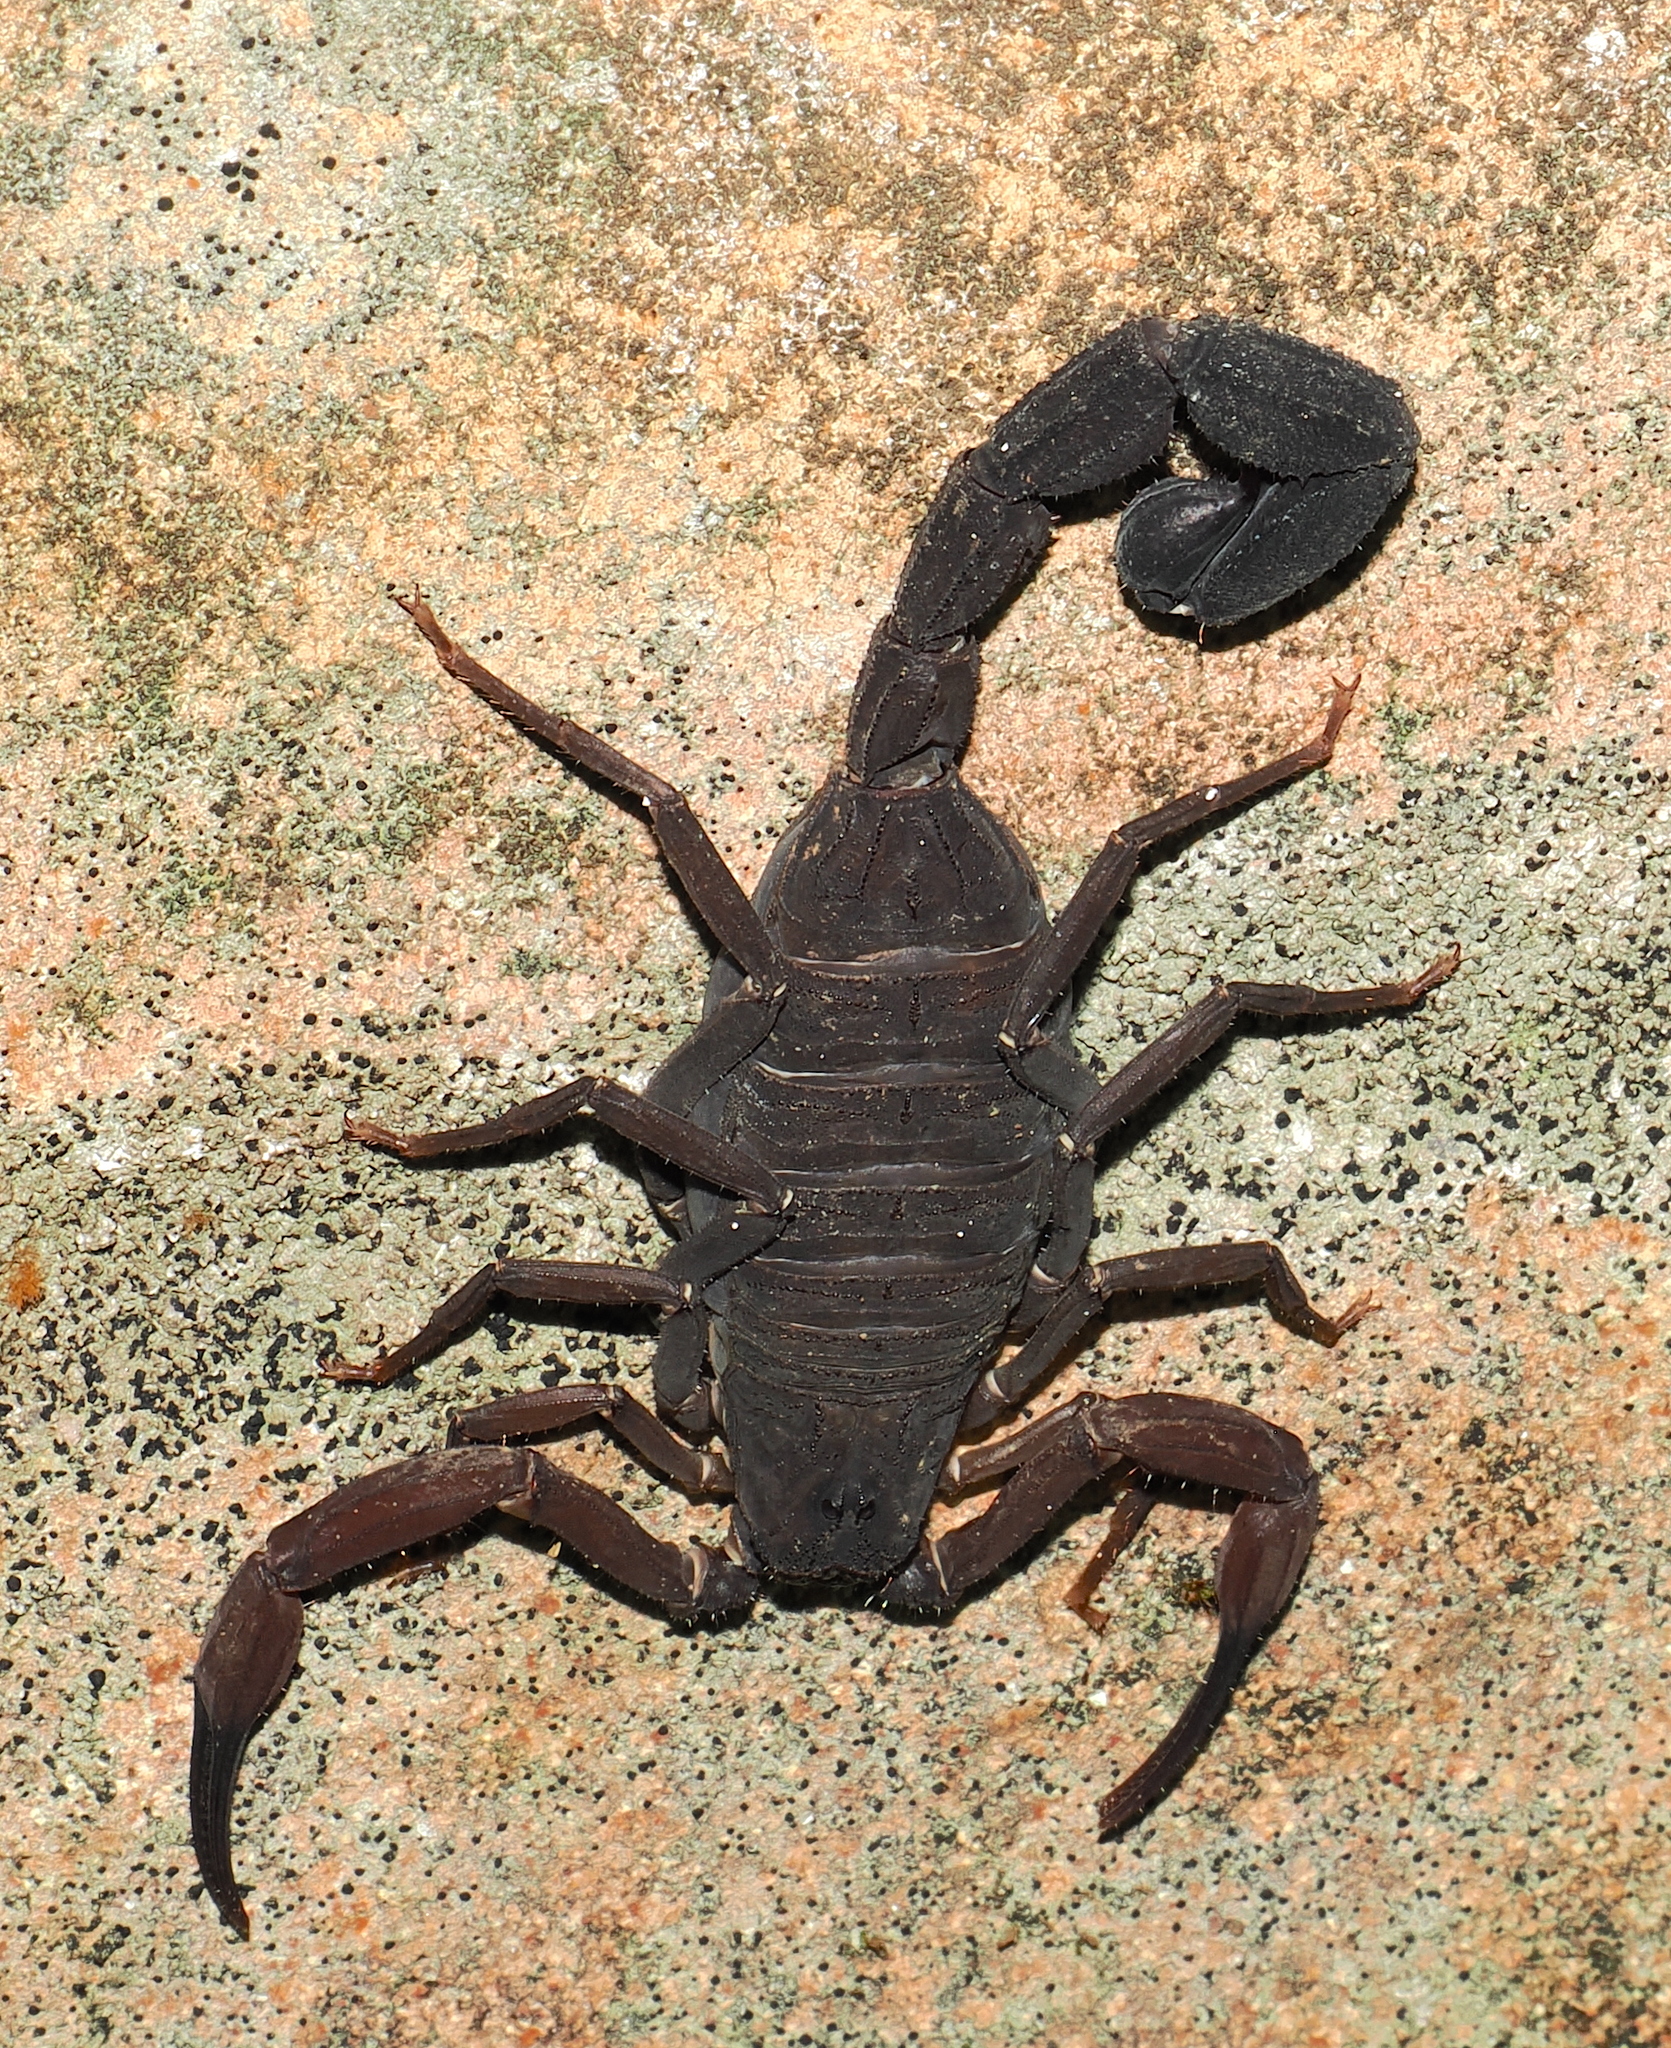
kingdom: Animalia
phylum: Arthropoda
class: Arachnida
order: Scorpiones
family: Buthidae
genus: Tityus
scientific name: Tityus pachyurus
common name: Scorpions
